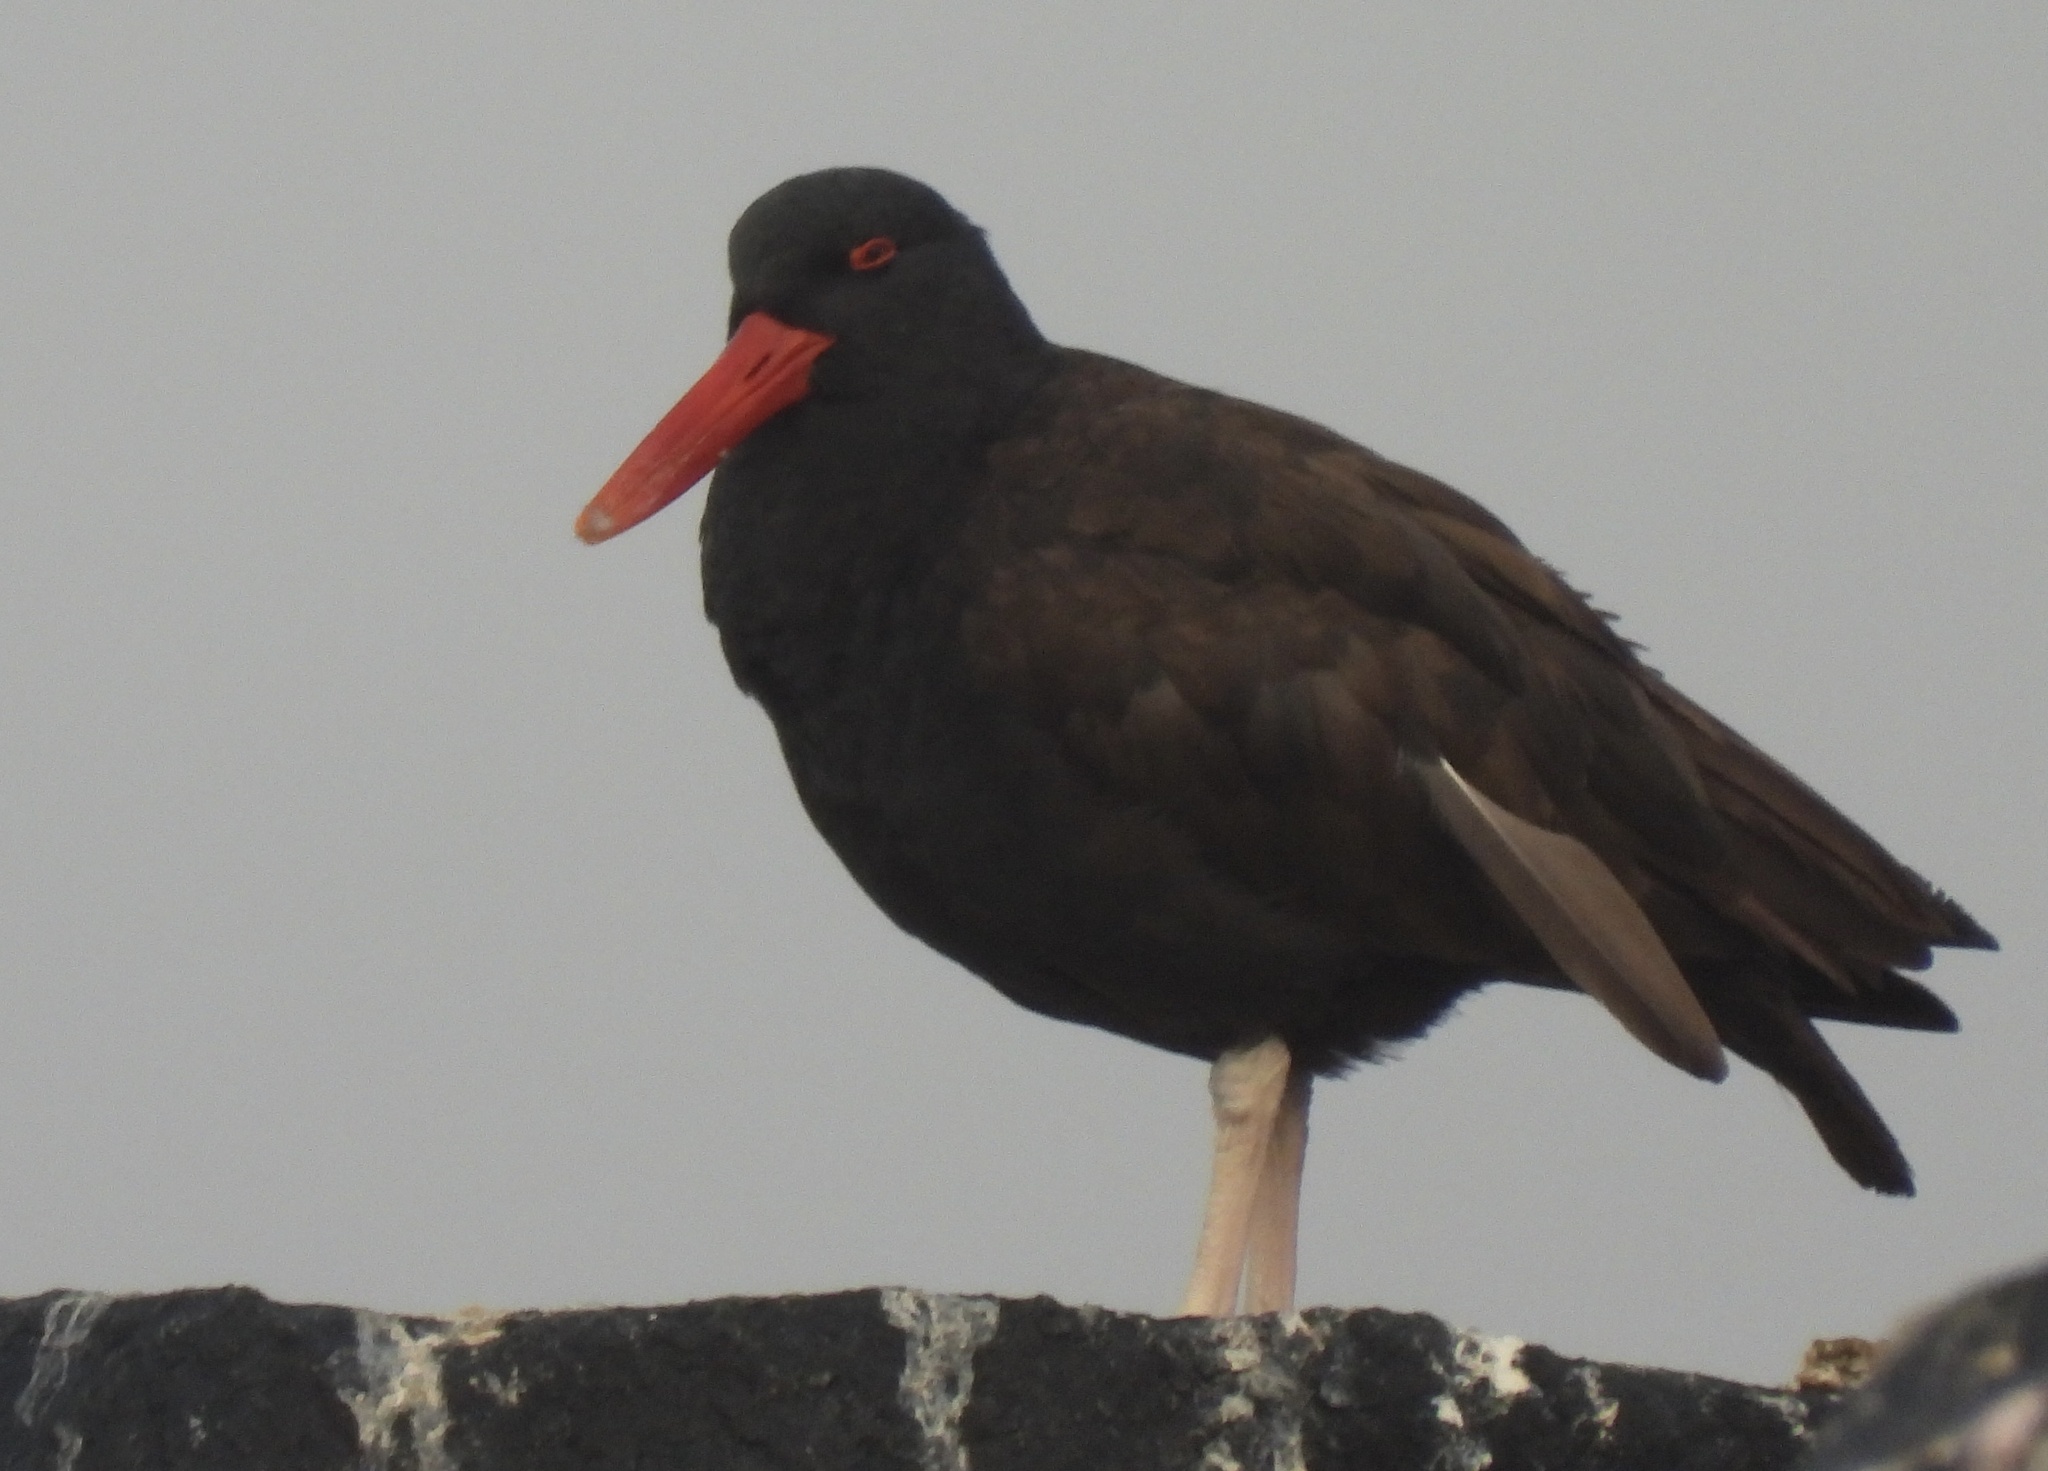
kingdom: Animalia
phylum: Chordata
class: Aves
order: Charadriiformes
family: Haematopodidae
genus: Haematopus
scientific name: Haematopus ater
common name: Blackish oystercatcher
